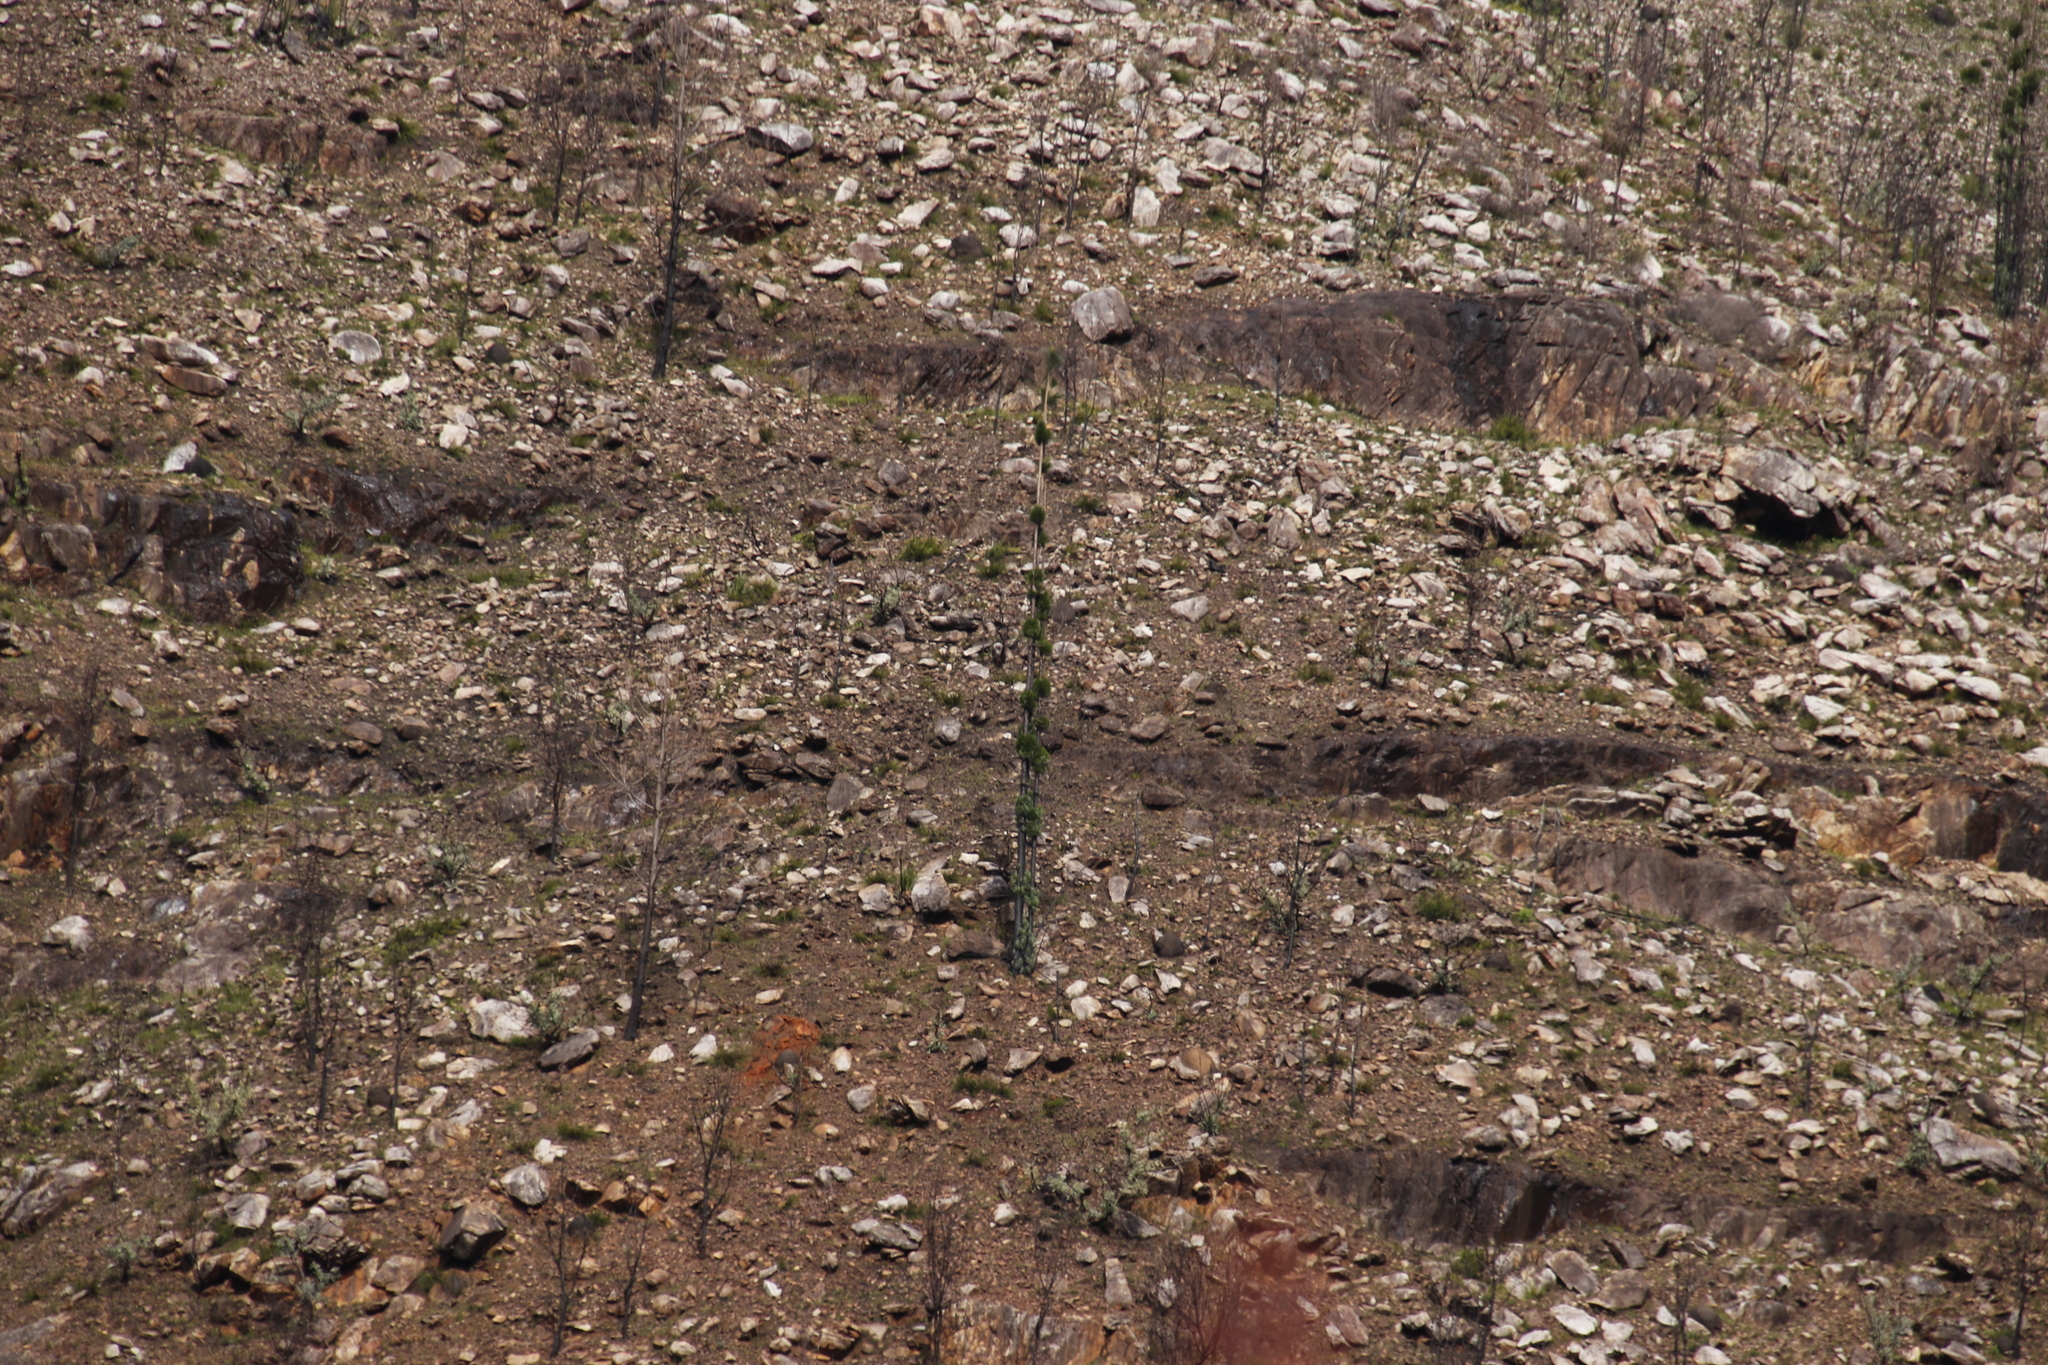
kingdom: Plantae
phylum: Tracheophyta
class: Pinopsida
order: Pinales
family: Pinaceae
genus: Pinus
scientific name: Pinus canariensis
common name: Canary islands pine
